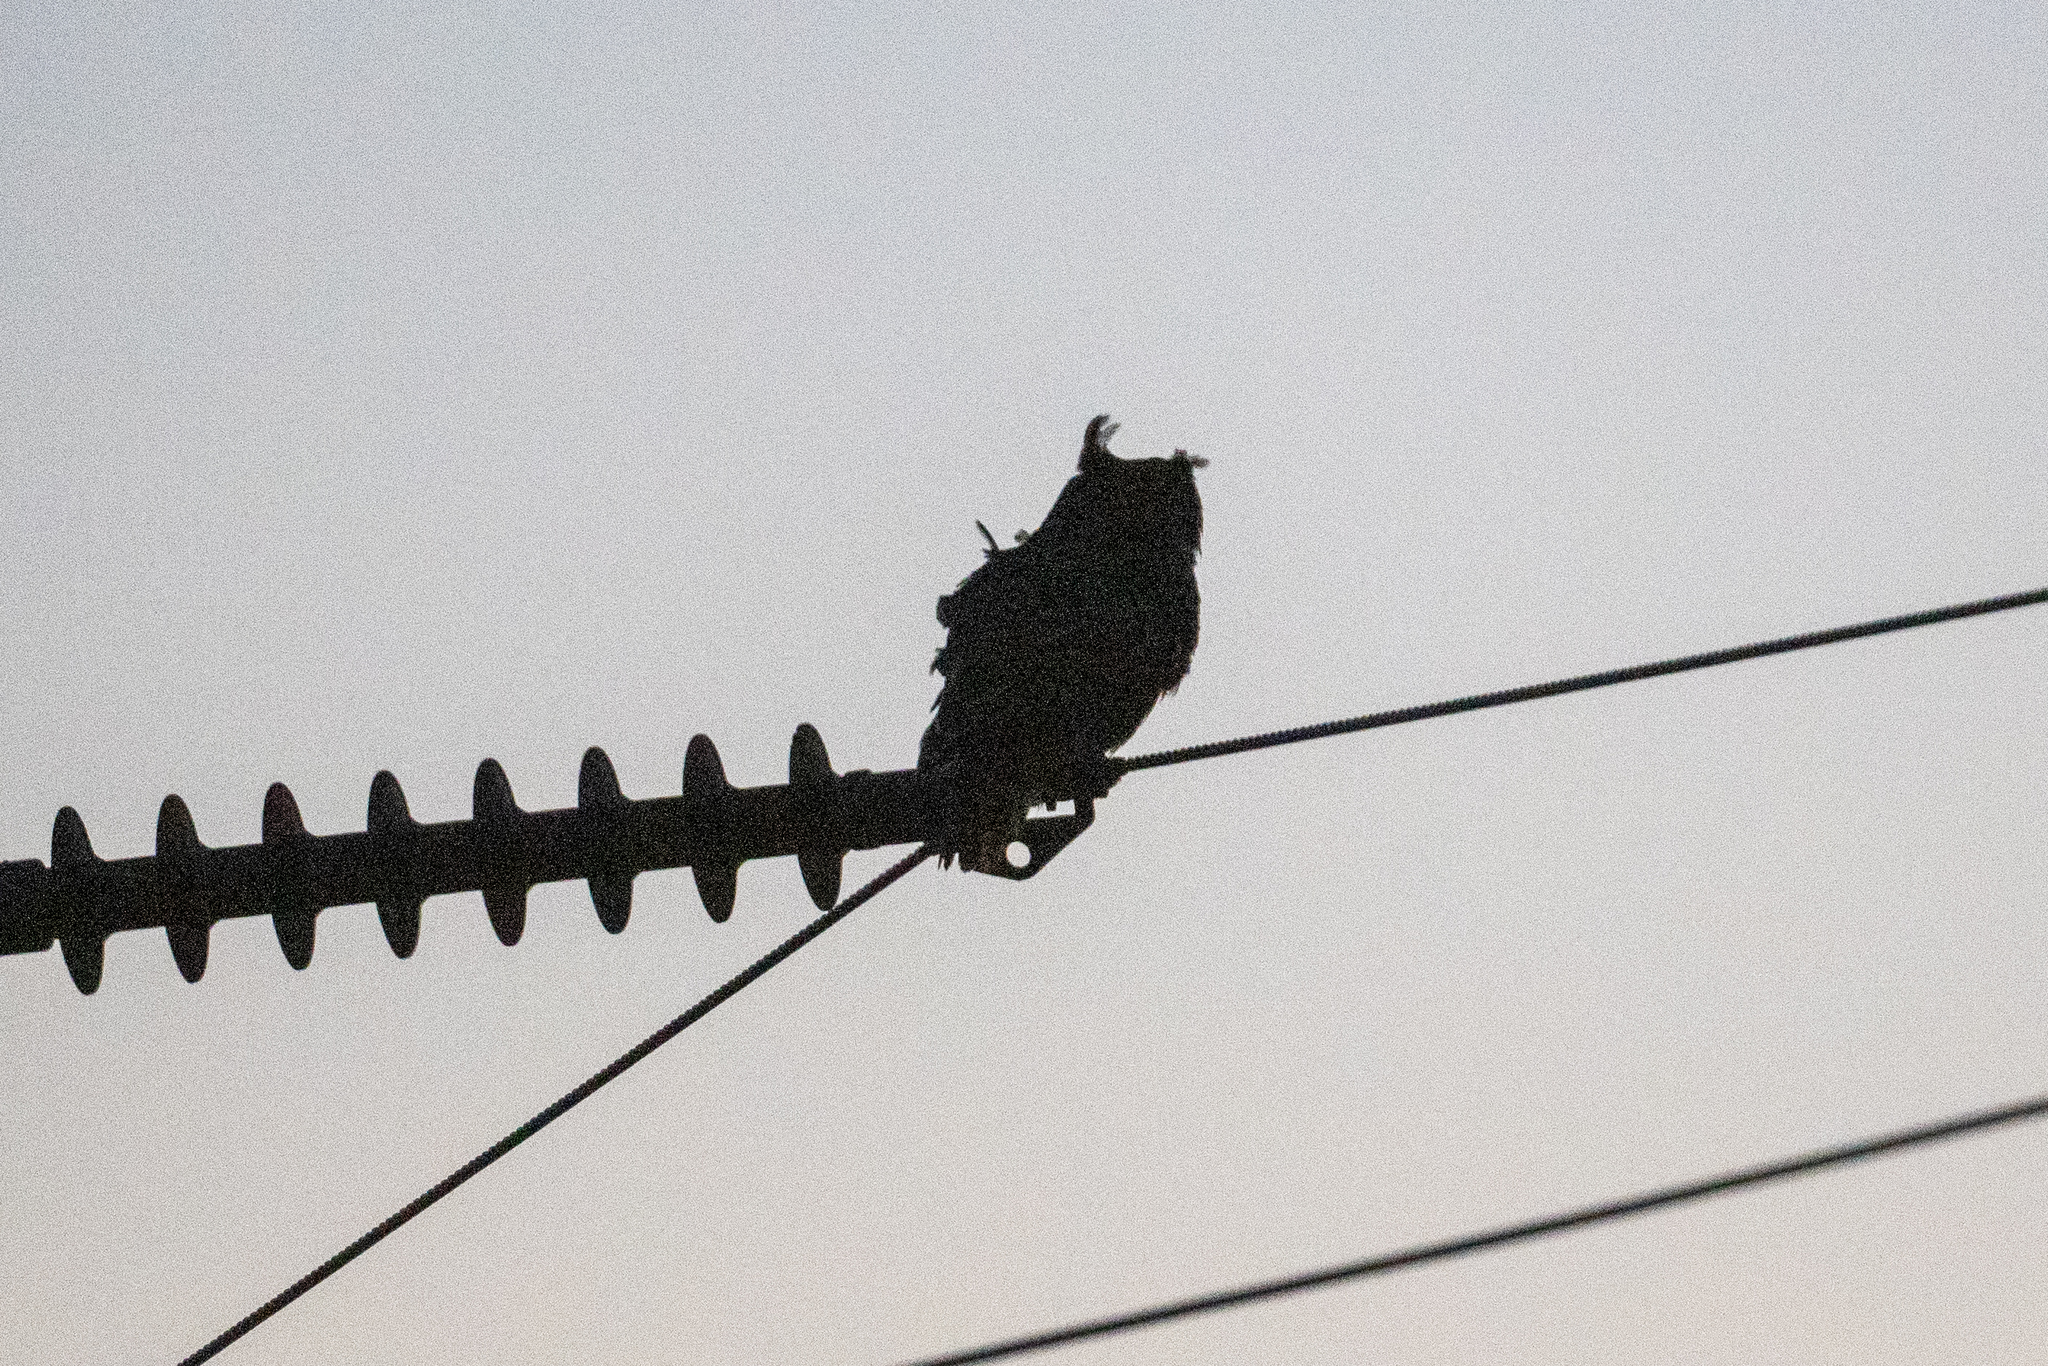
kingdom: Animalia
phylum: Chordata
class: Aves
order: Strigiformes
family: Strigidae
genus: Bubo
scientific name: Bubo virginianus
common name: Great horned owl
